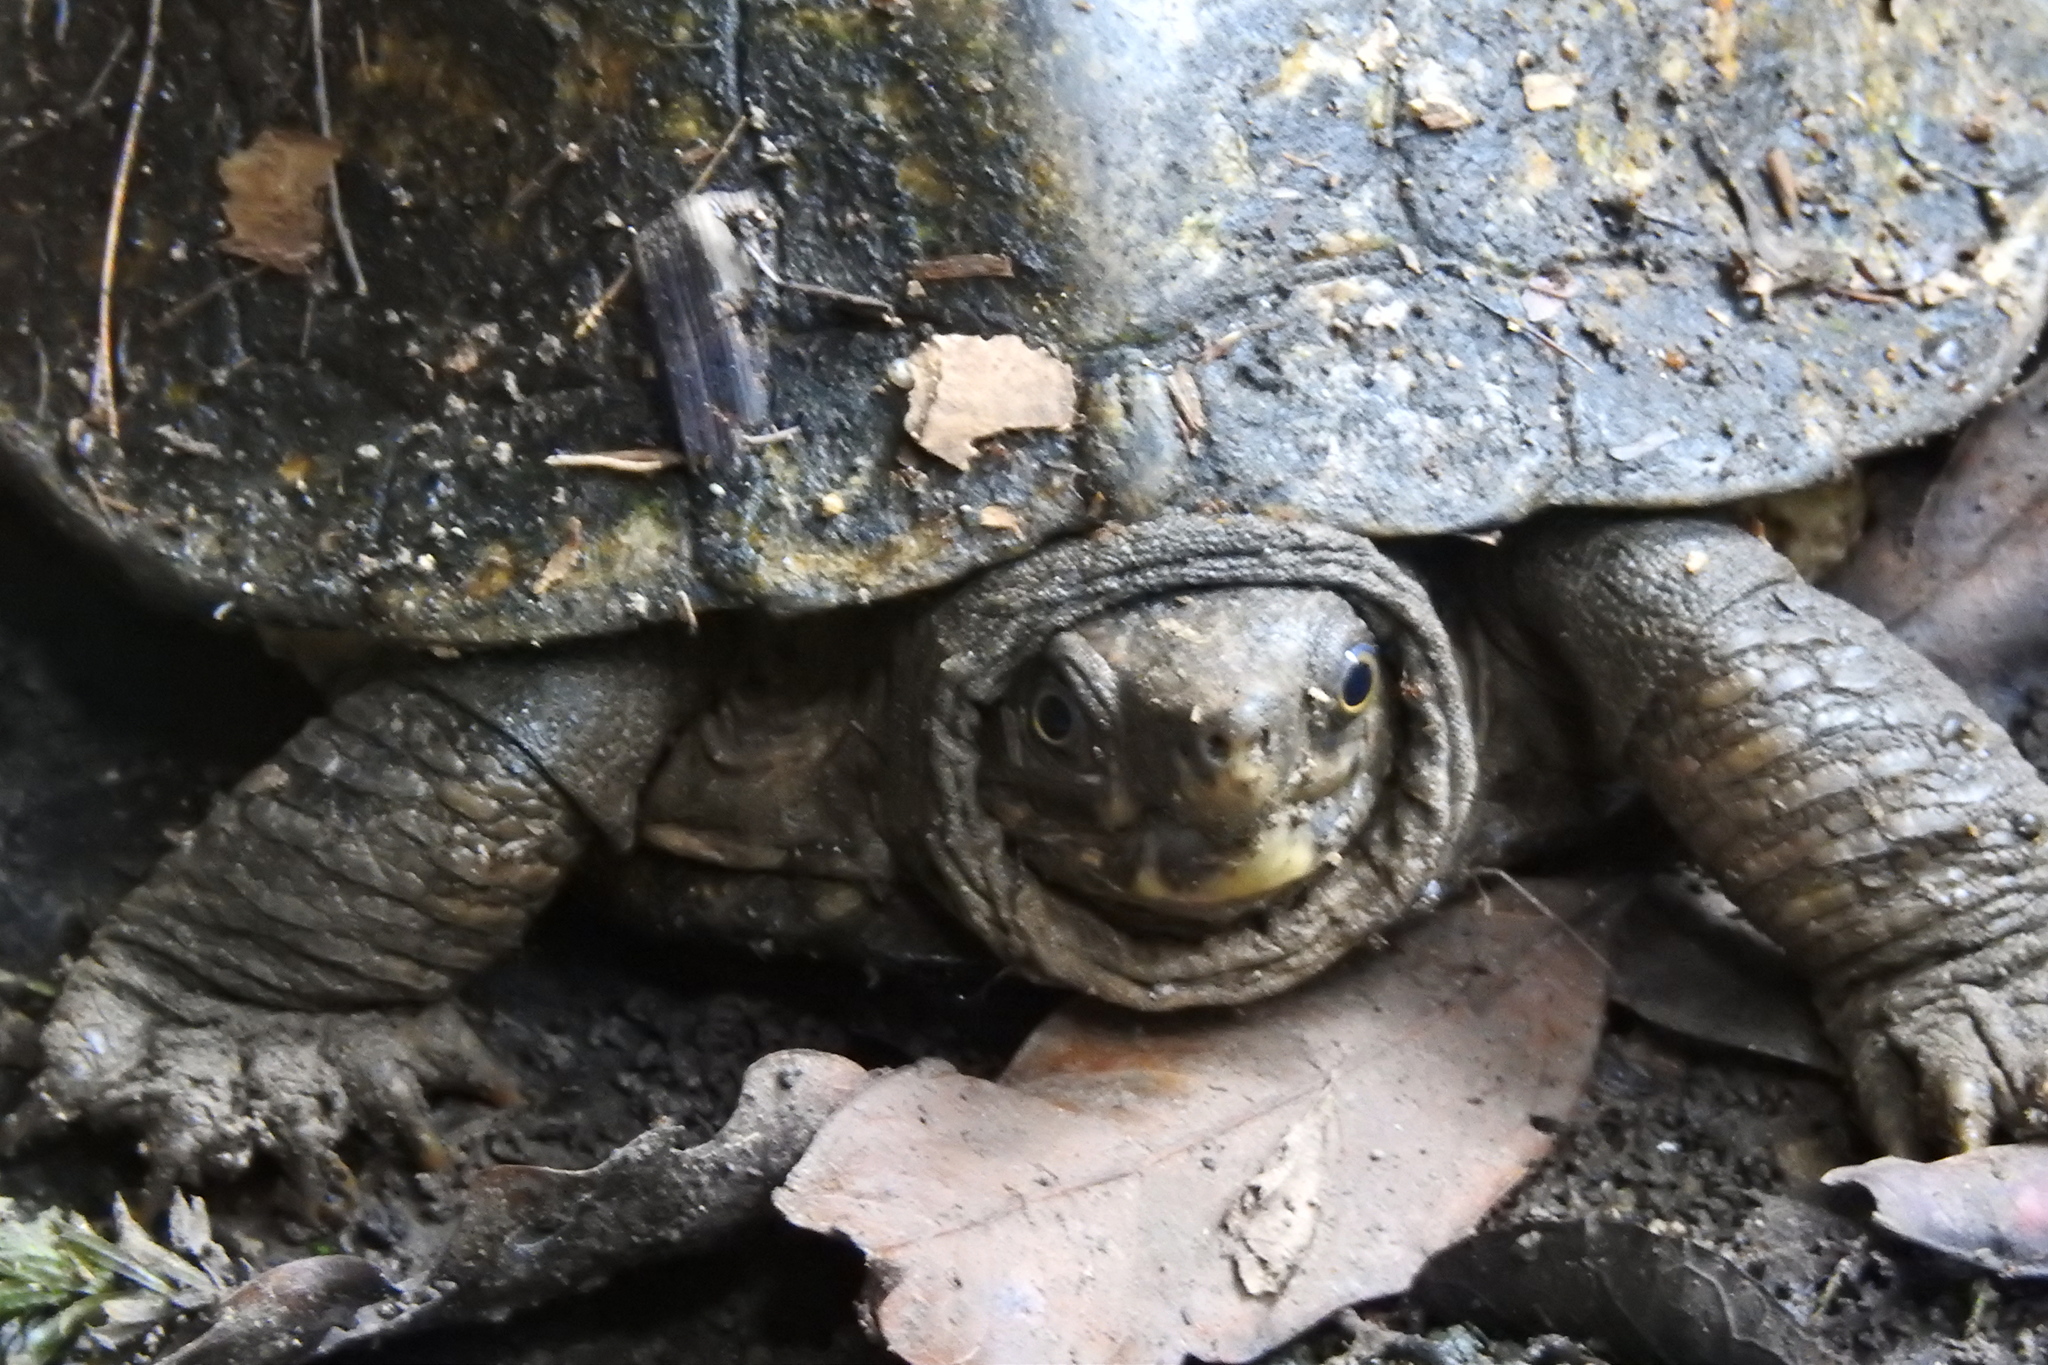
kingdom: Animalia
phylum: Chordata
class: Testudines
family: Geoemydidae
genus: Notochelys
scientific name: Notochelys platynota
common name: Malayan flat-shelled turtle
